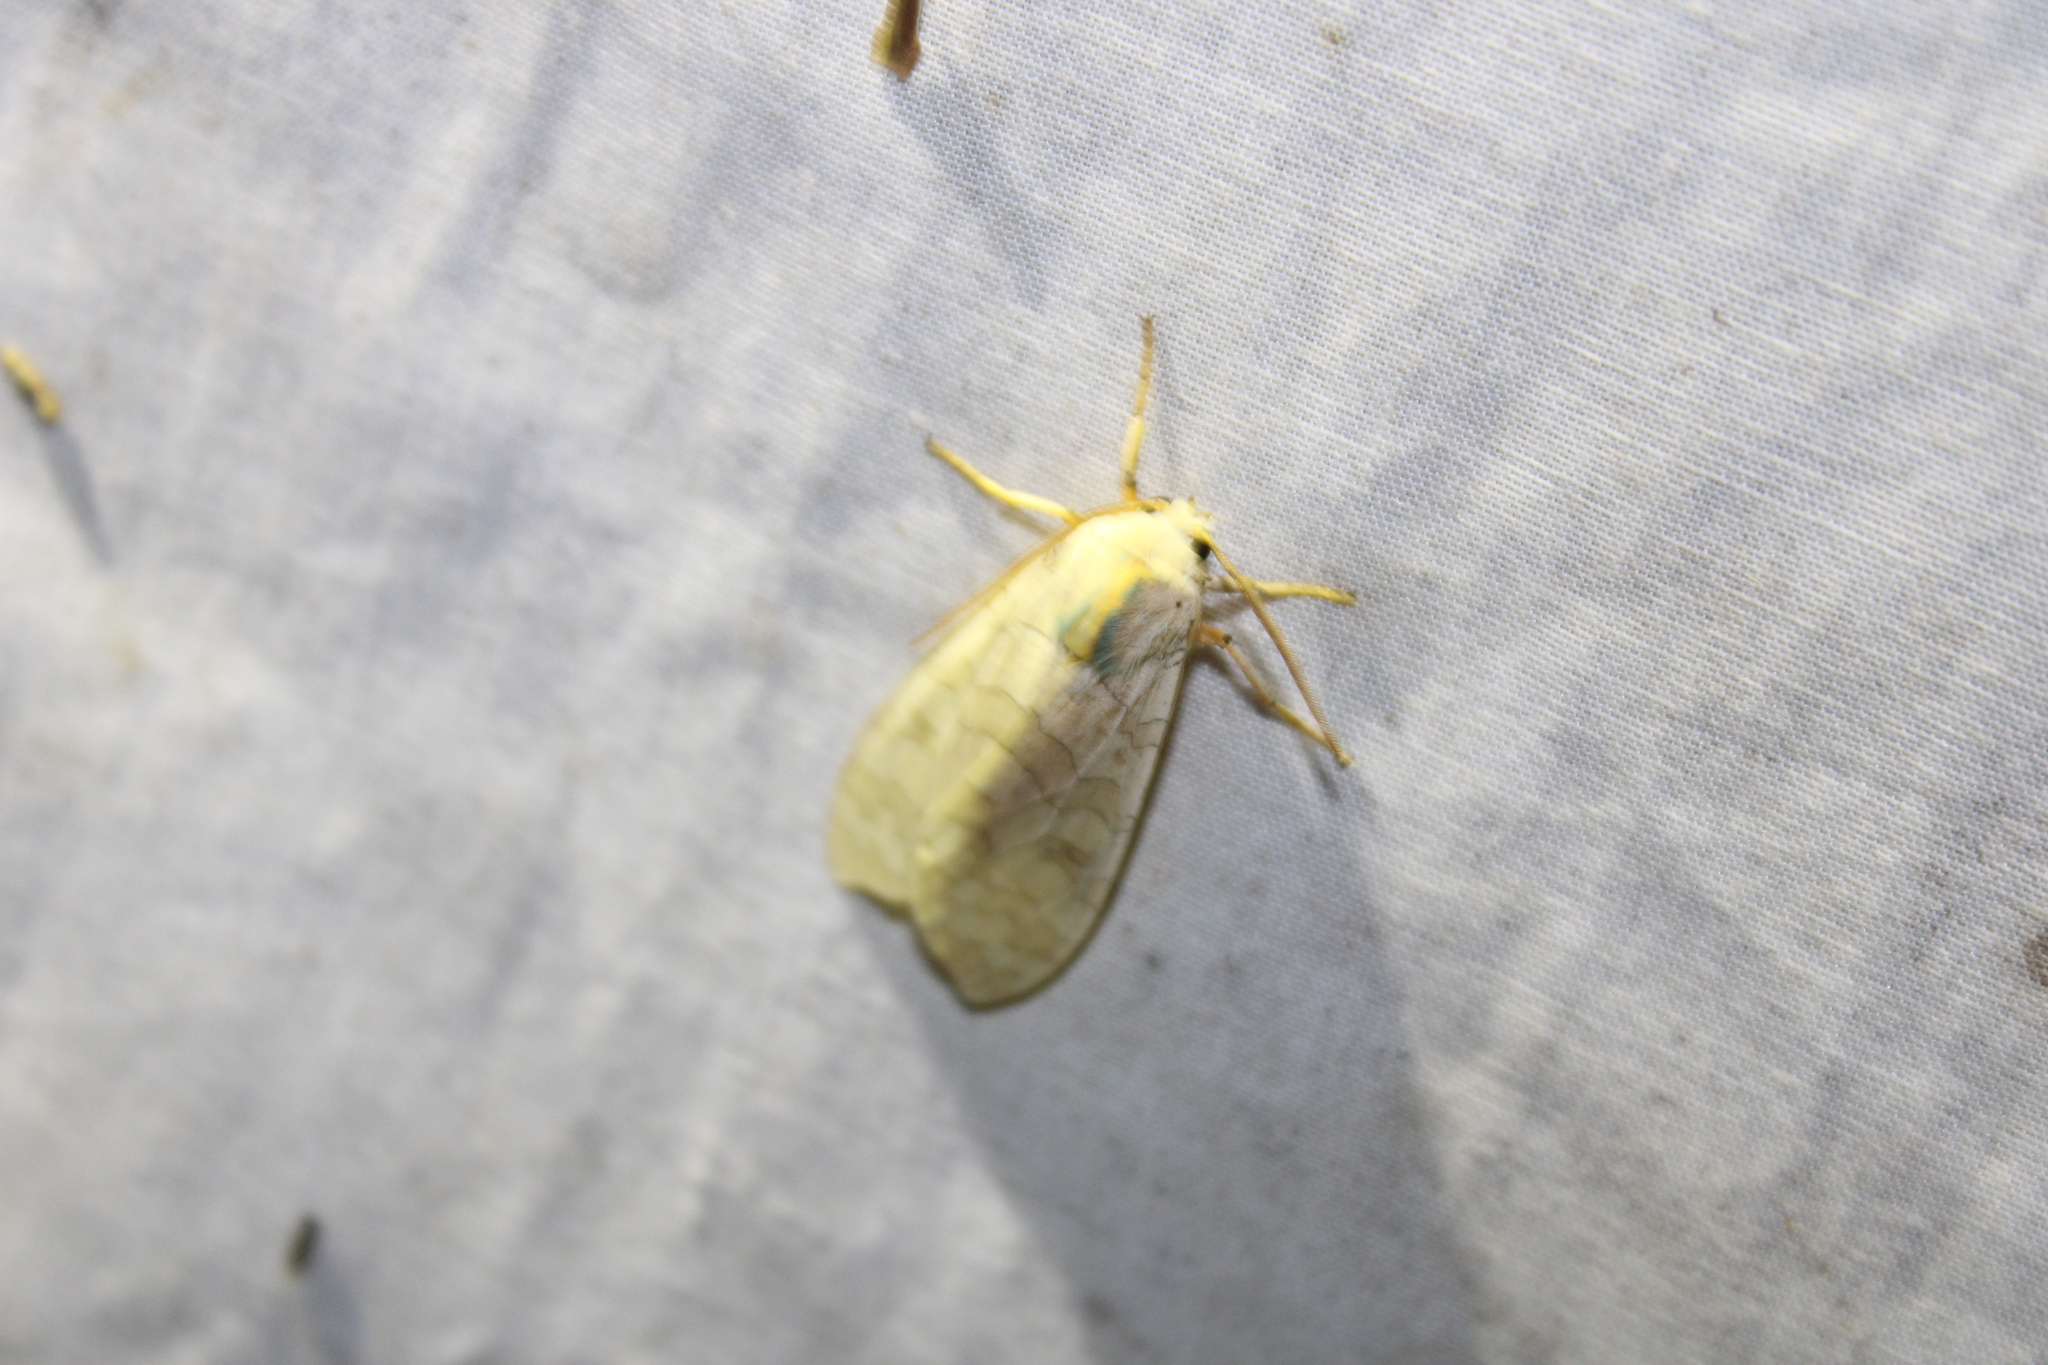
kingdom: Animalia
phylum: Arthropoda
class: Insecta
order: Lepidoptera
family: Erebidae
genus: Halysidota
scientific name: Halysidota
